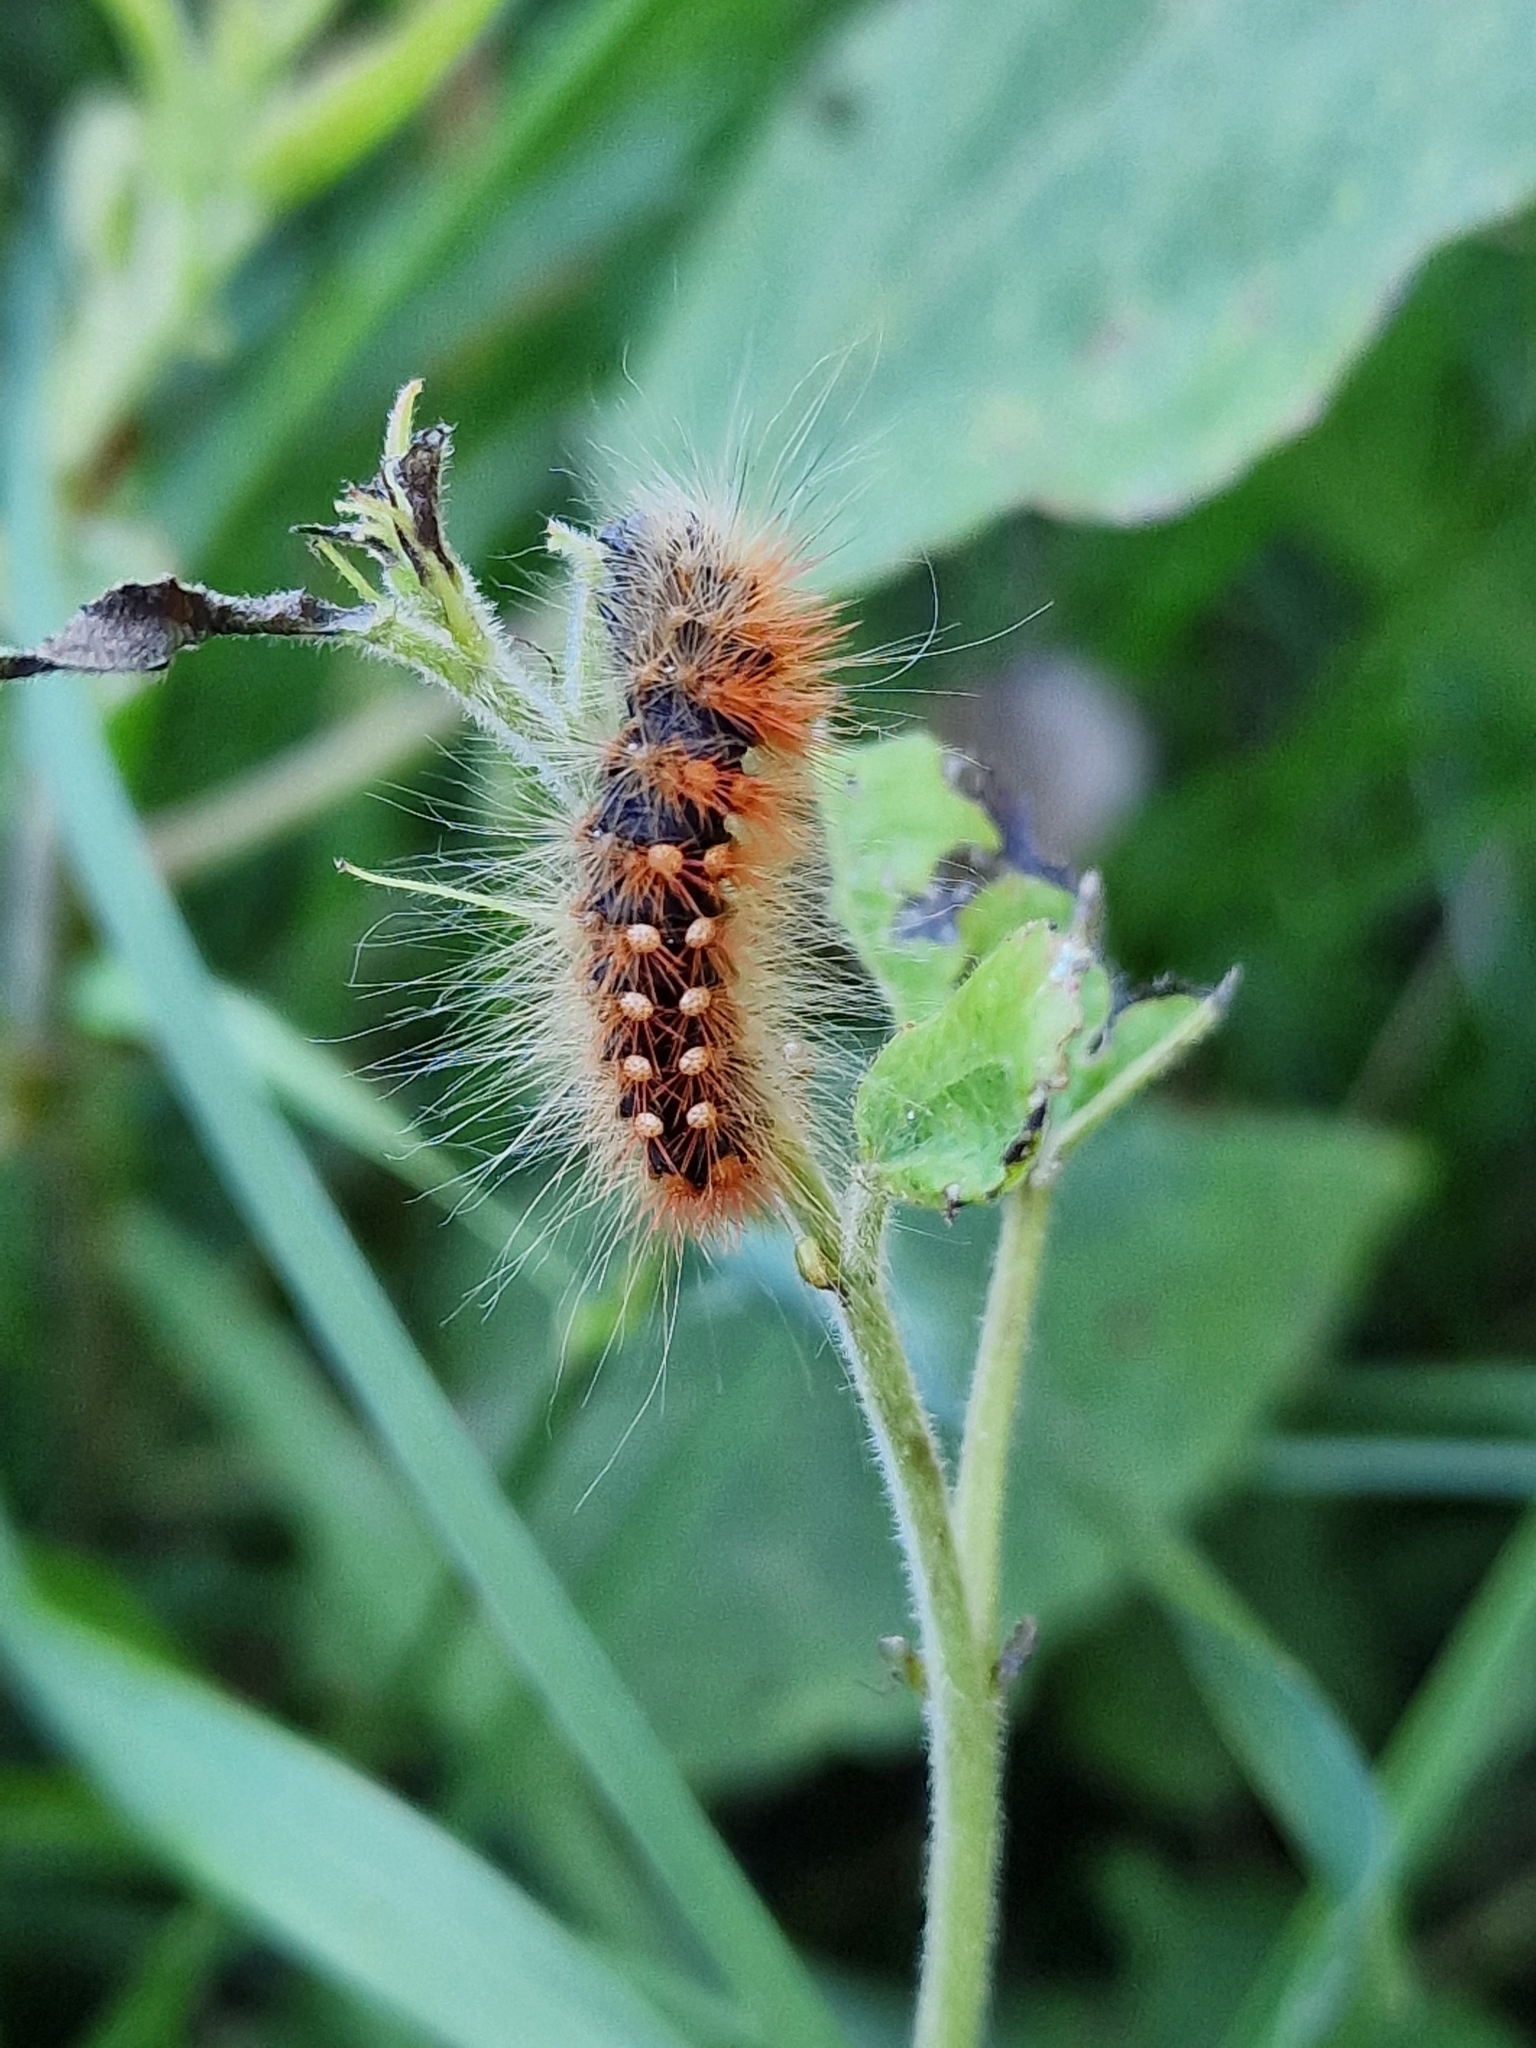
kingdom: Animalia
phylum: Arthropoda
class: Insecta
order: Lepidoptera
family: Noctuidae
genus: Acronicta
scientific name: Acronicta auricoma
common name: Scarce dagger
